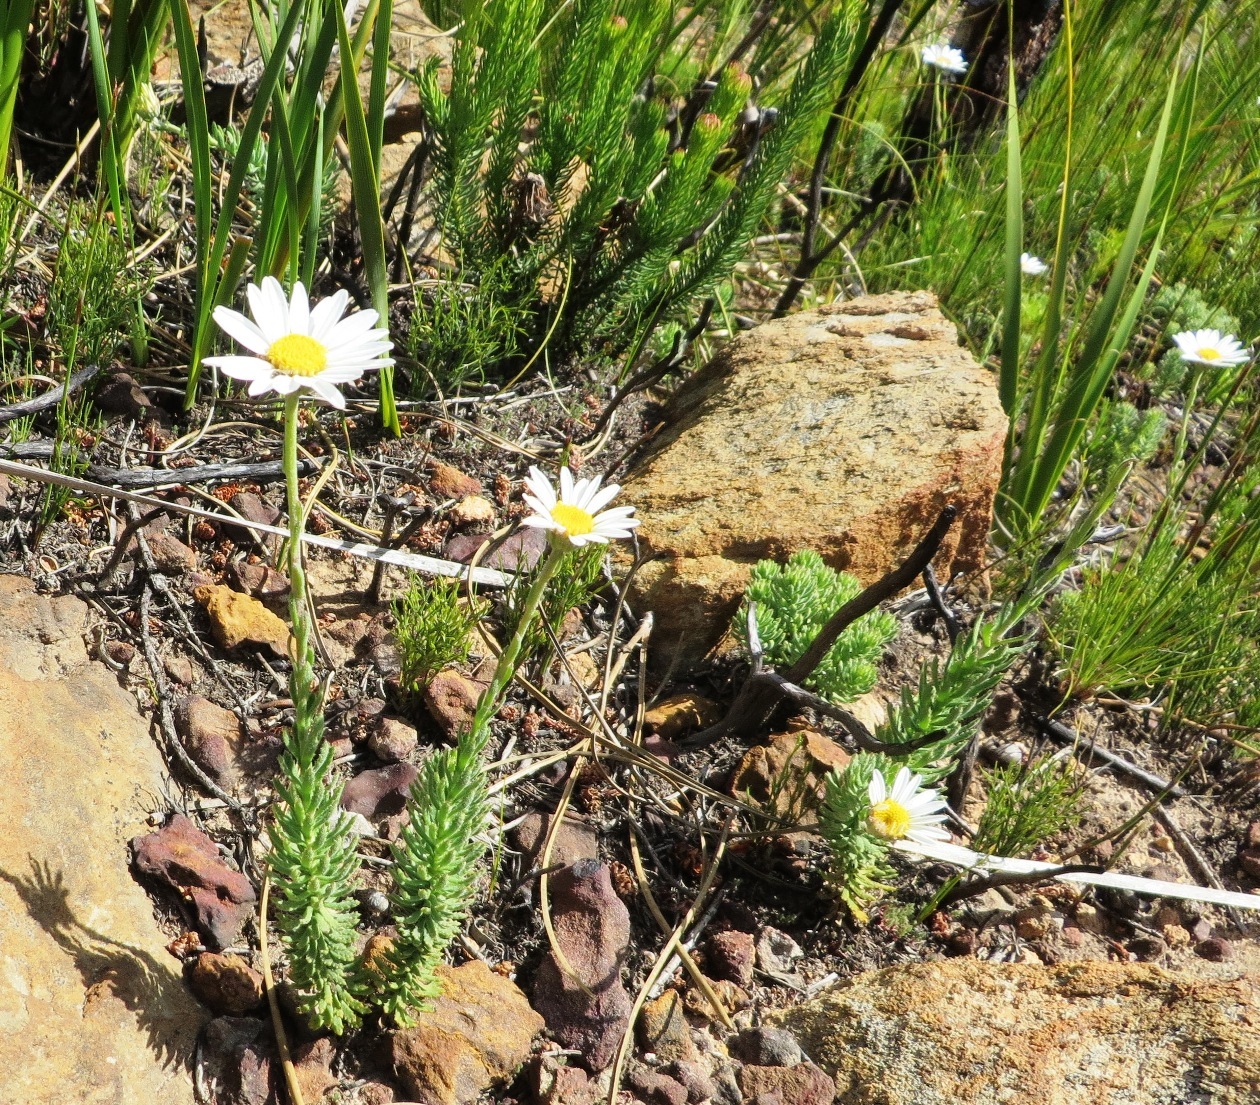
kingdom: Plantae
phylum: Tracheophyta
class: Magnoliopsida
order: Asterales
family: Asteraceae
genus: Osmitopsis
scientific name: Osmitopsis afra
